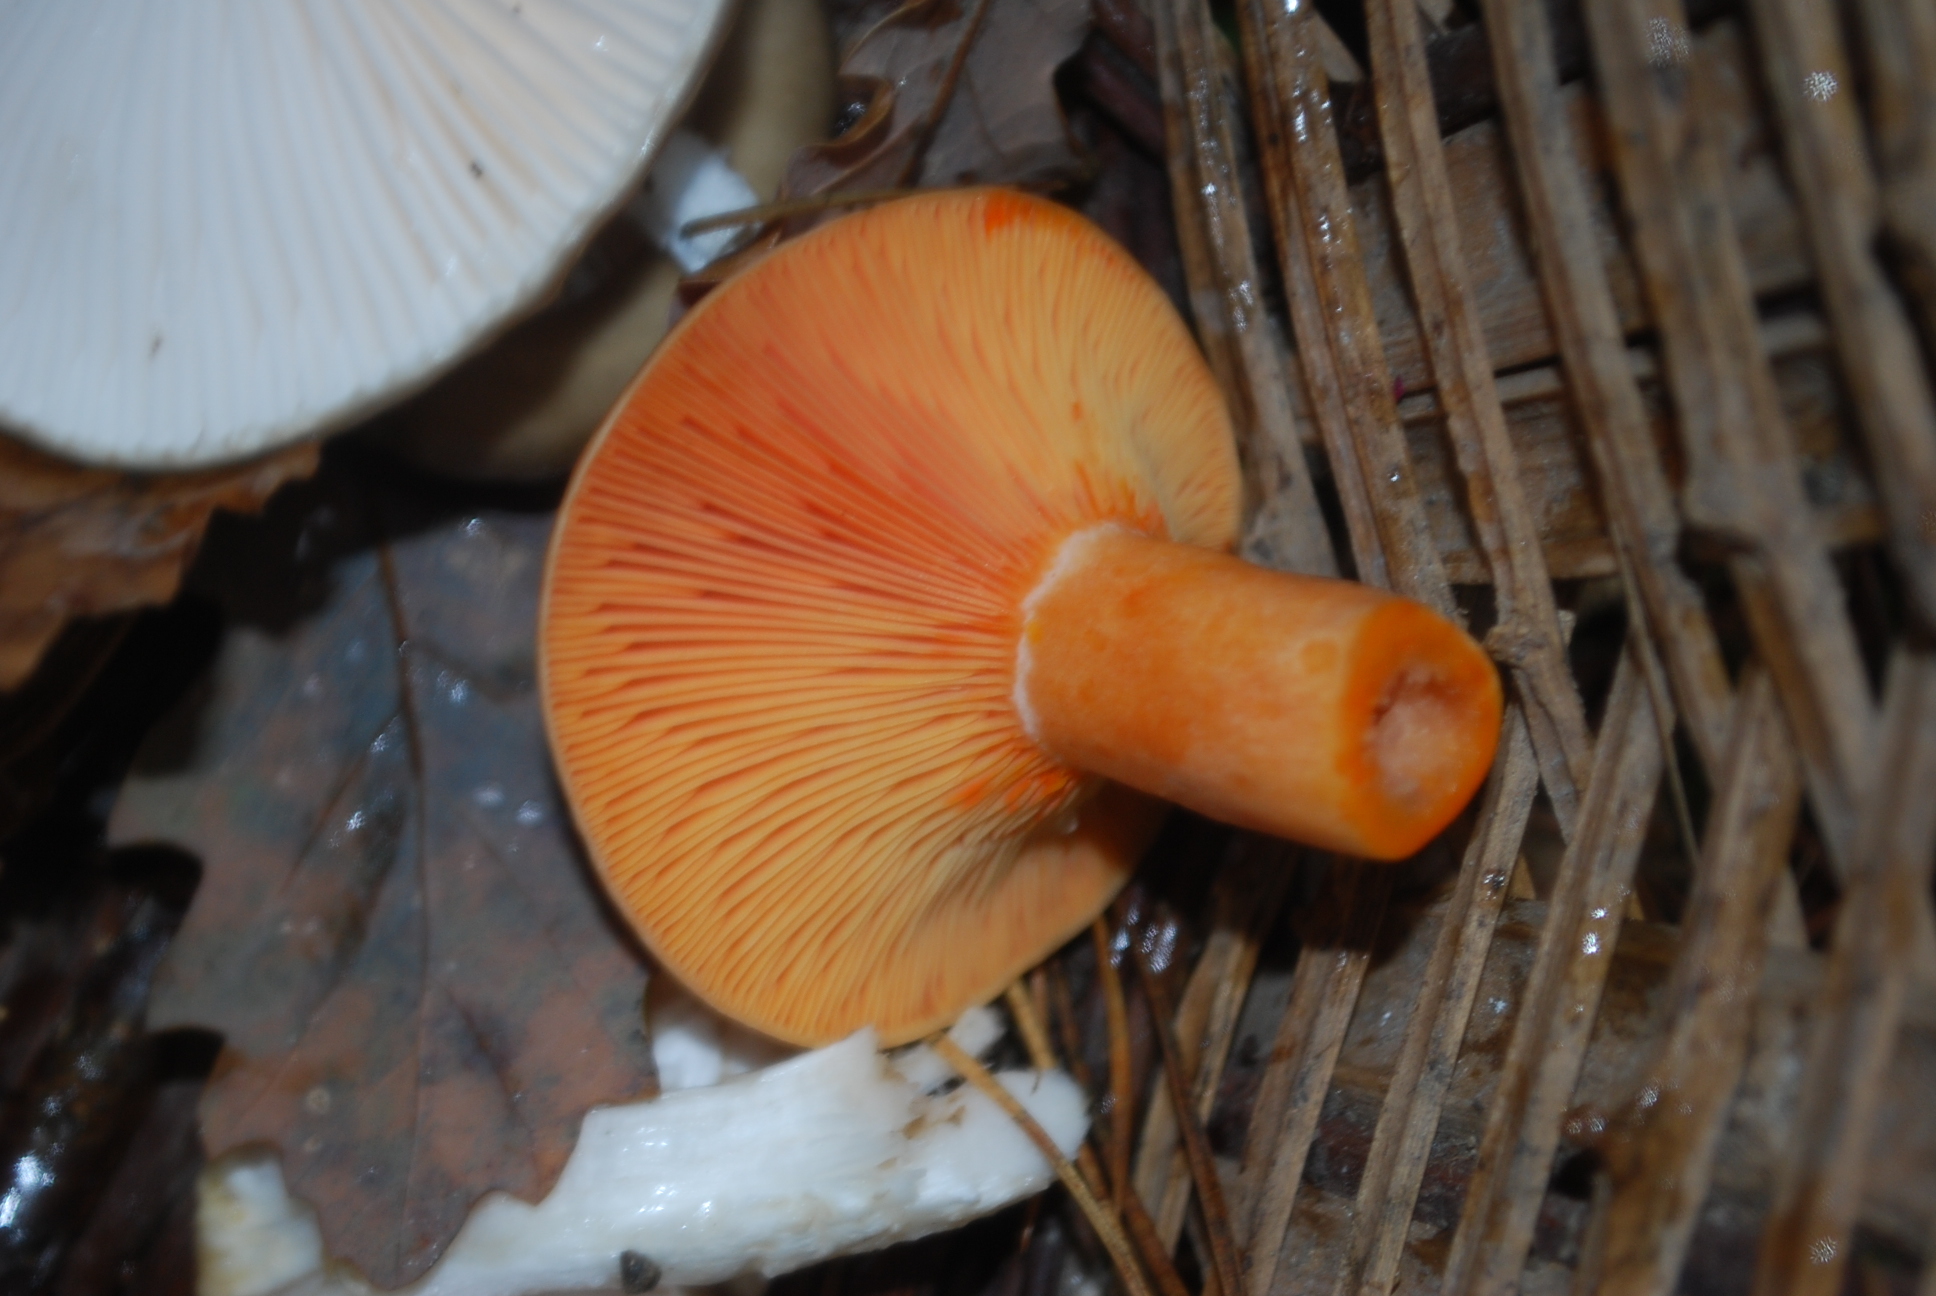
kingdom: Fungi
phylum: Basidiomycota
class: Agaricomycetes
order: Russulales
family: Russulaceae
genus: Lactarius
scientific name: Lactarius deliciosus
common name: Saffron milk-cap
